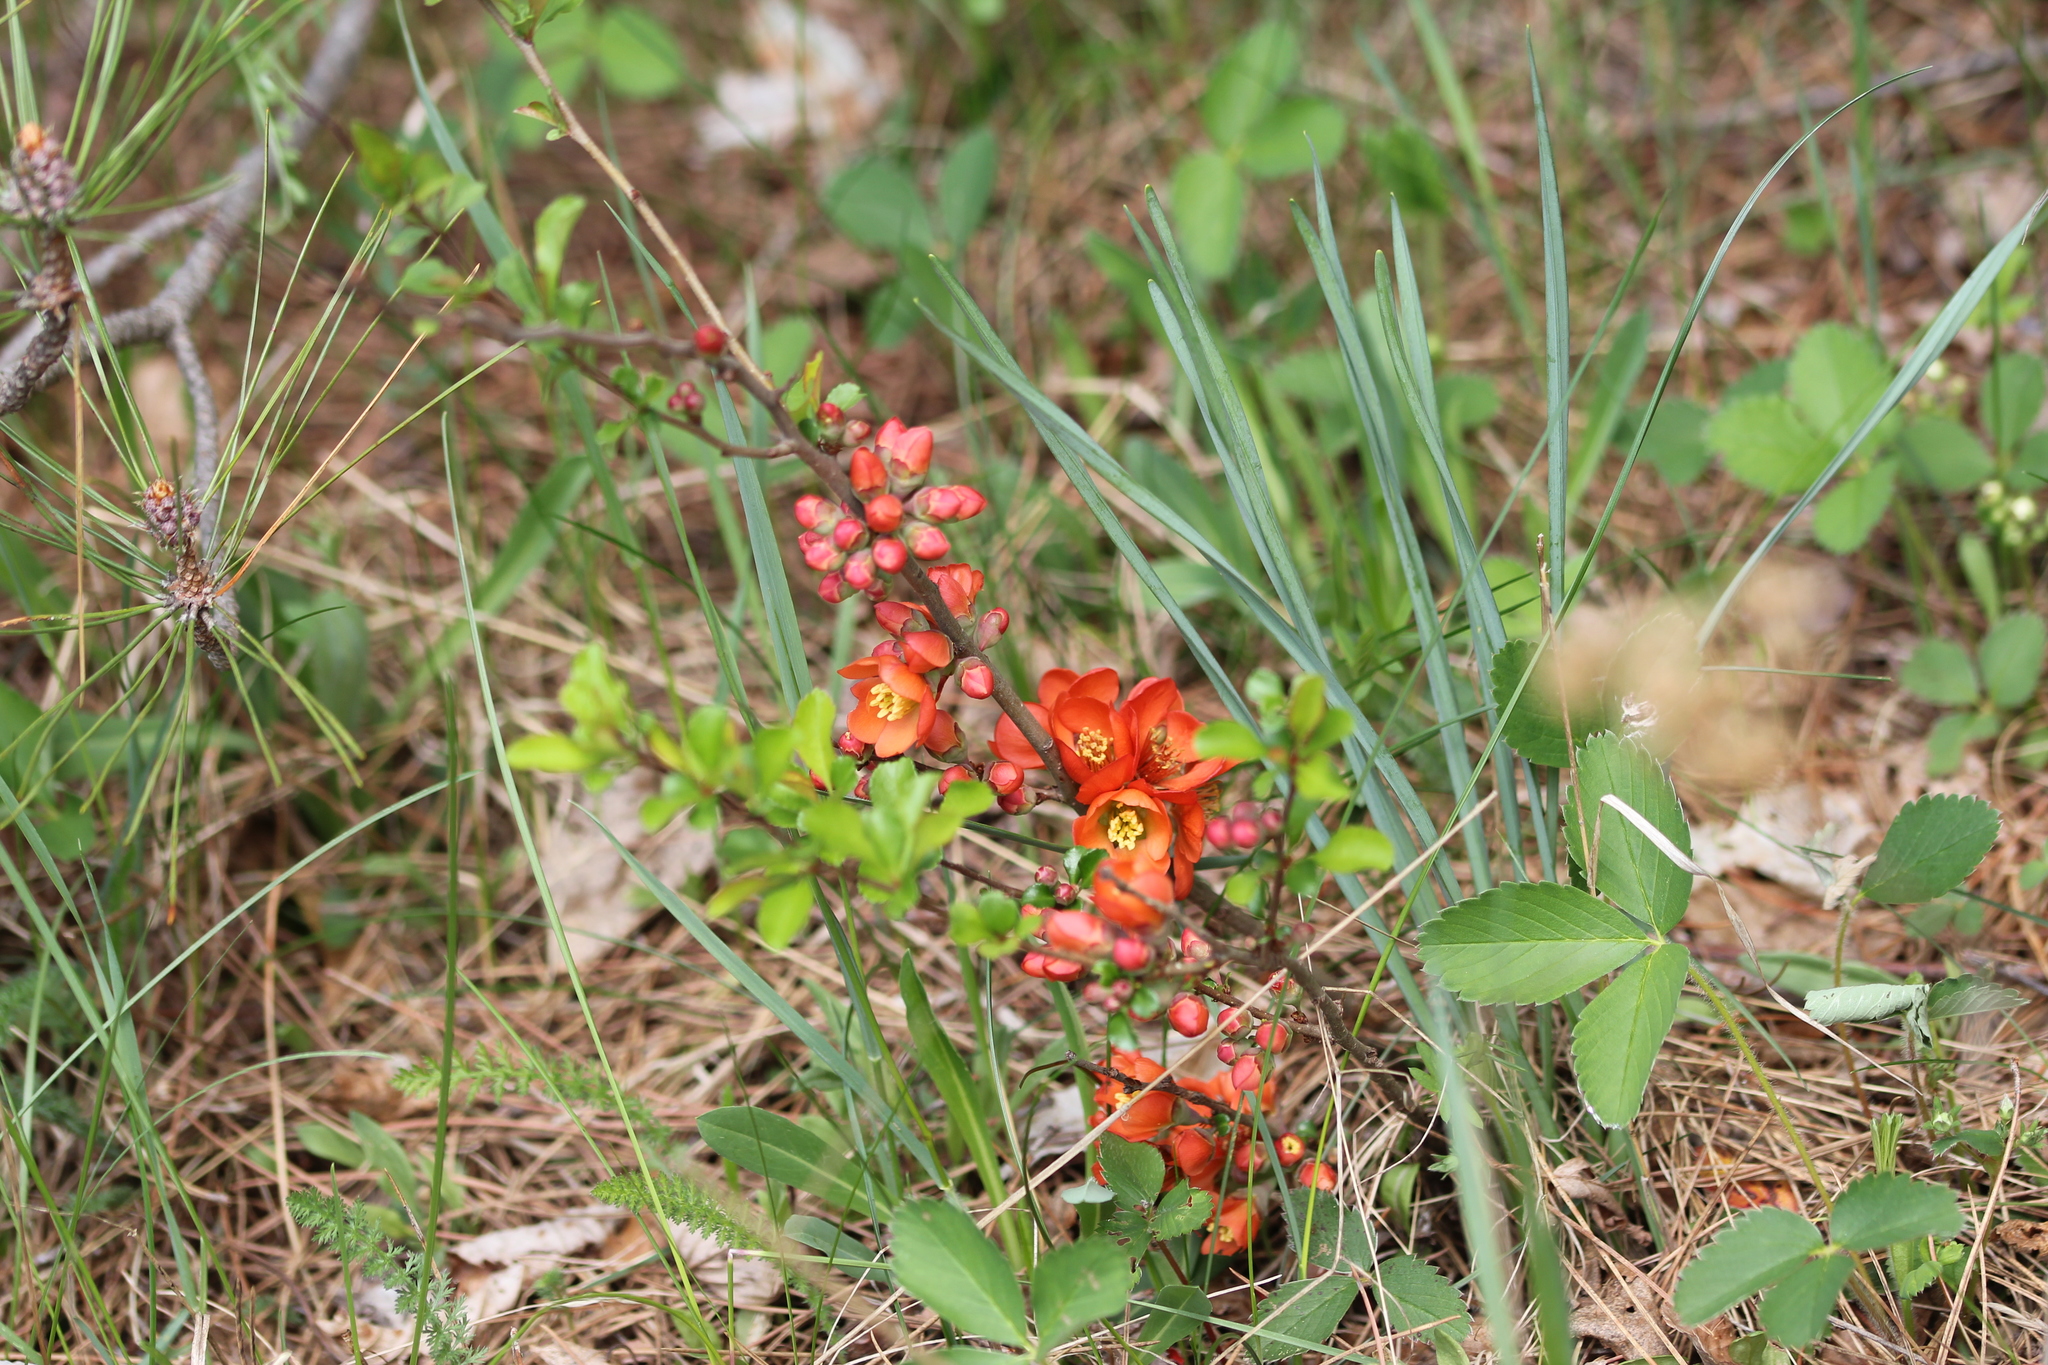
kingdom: Plantae
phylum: Tracheophyta
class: Magnoliopsida
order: Rosales
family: Rosaceae
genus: Chaenomeles
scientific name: Chaenomeles japonica
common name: Japanese quince
